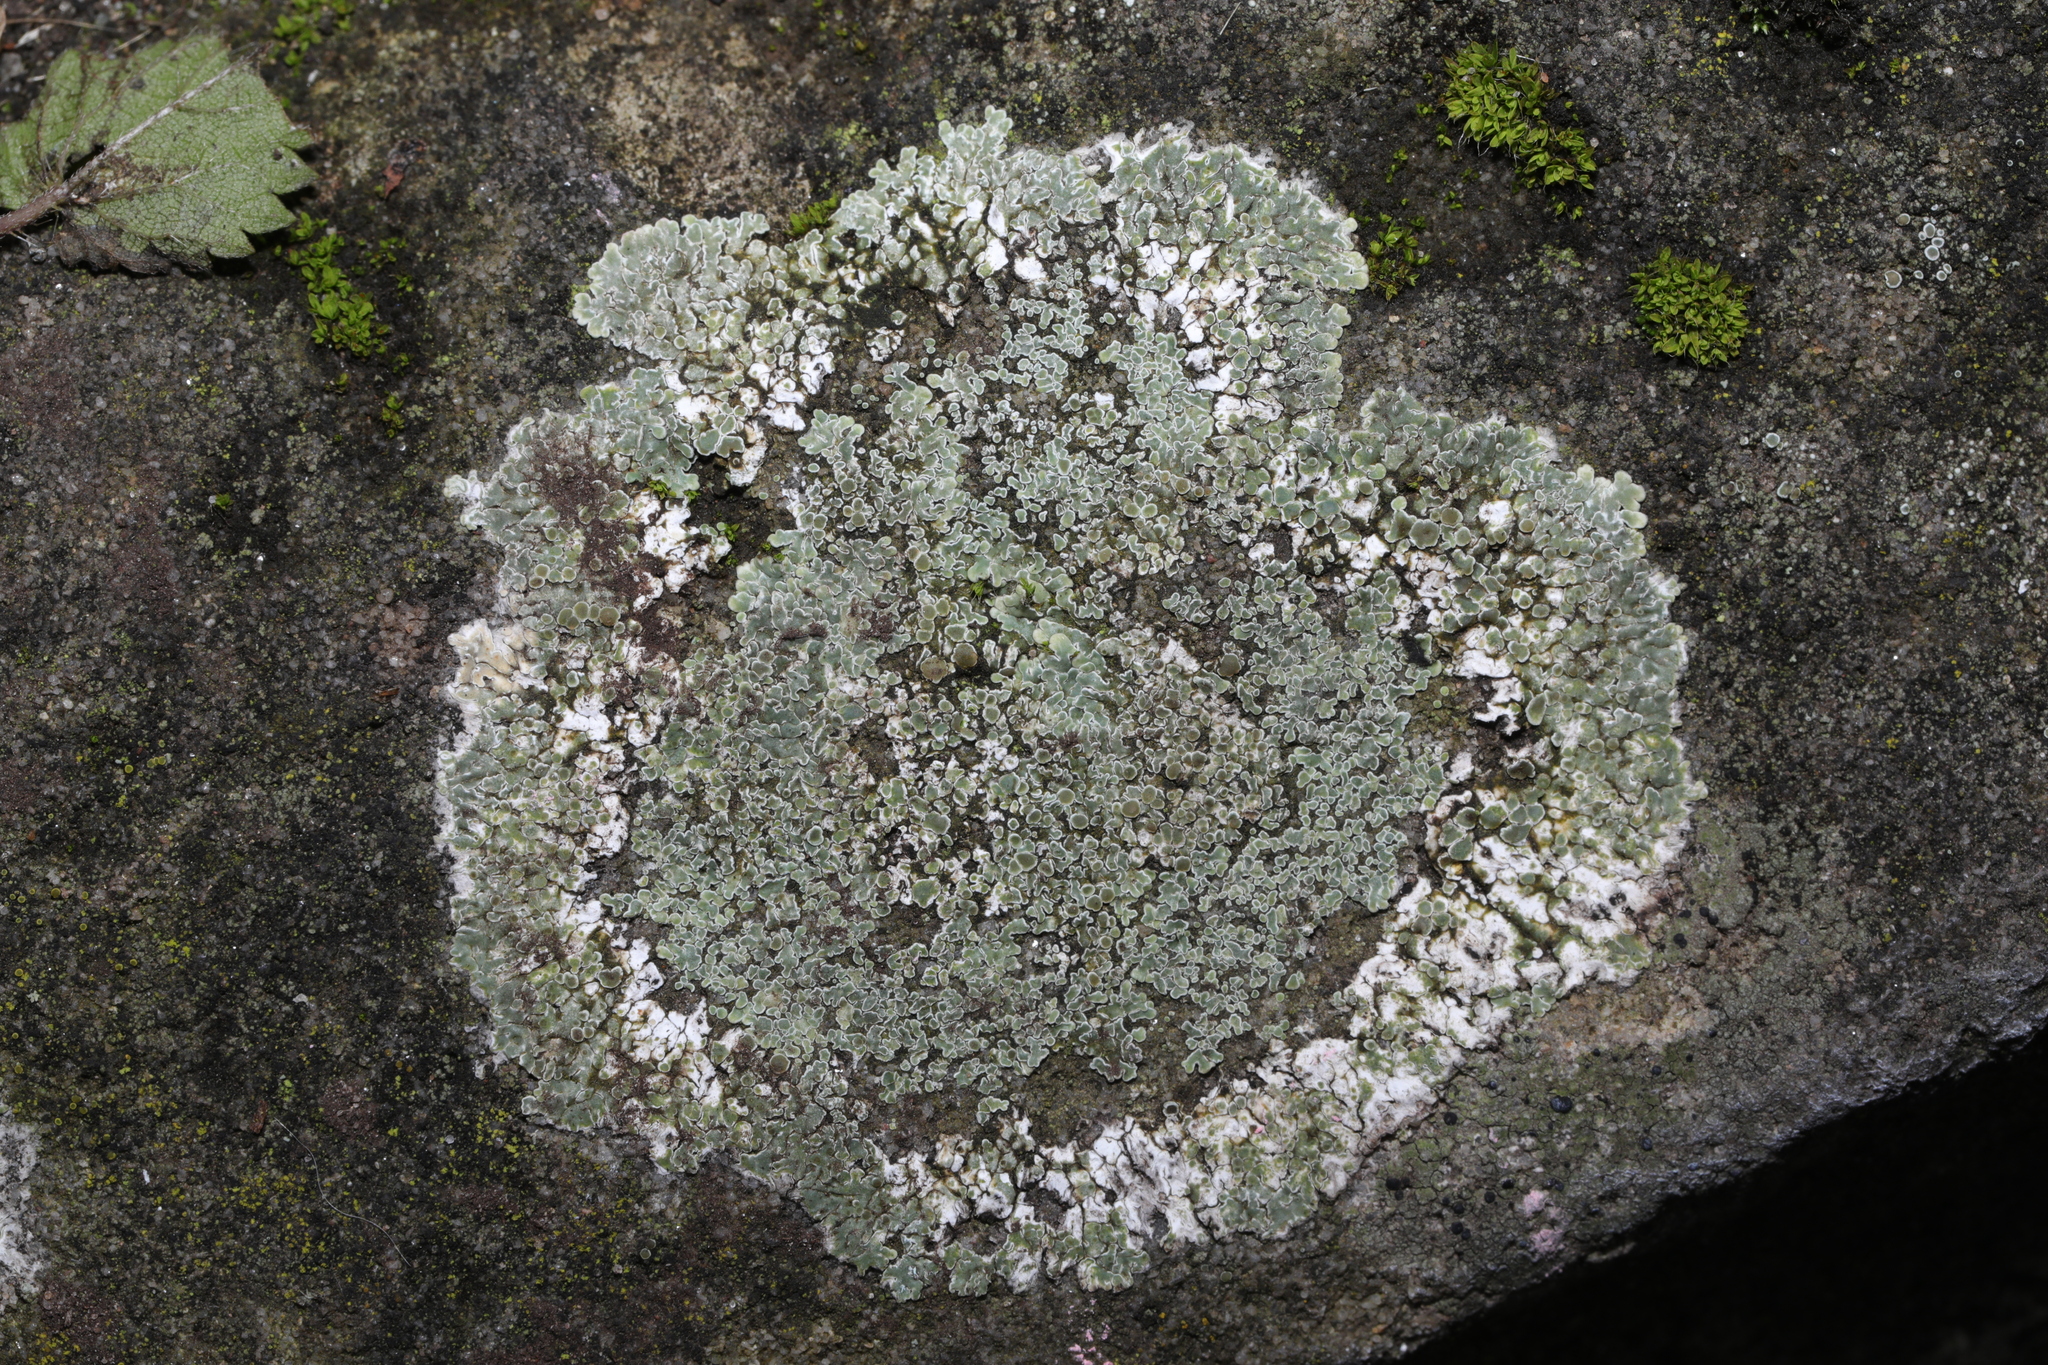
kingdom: Fungi
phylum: Ascomycota
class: Lecanoromycetes
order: Lecanorales
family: Lecanoraceae
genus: Protoparmeliopsis
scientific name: Protoparmeliopsis muralis
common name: Stonewall rim lichen
